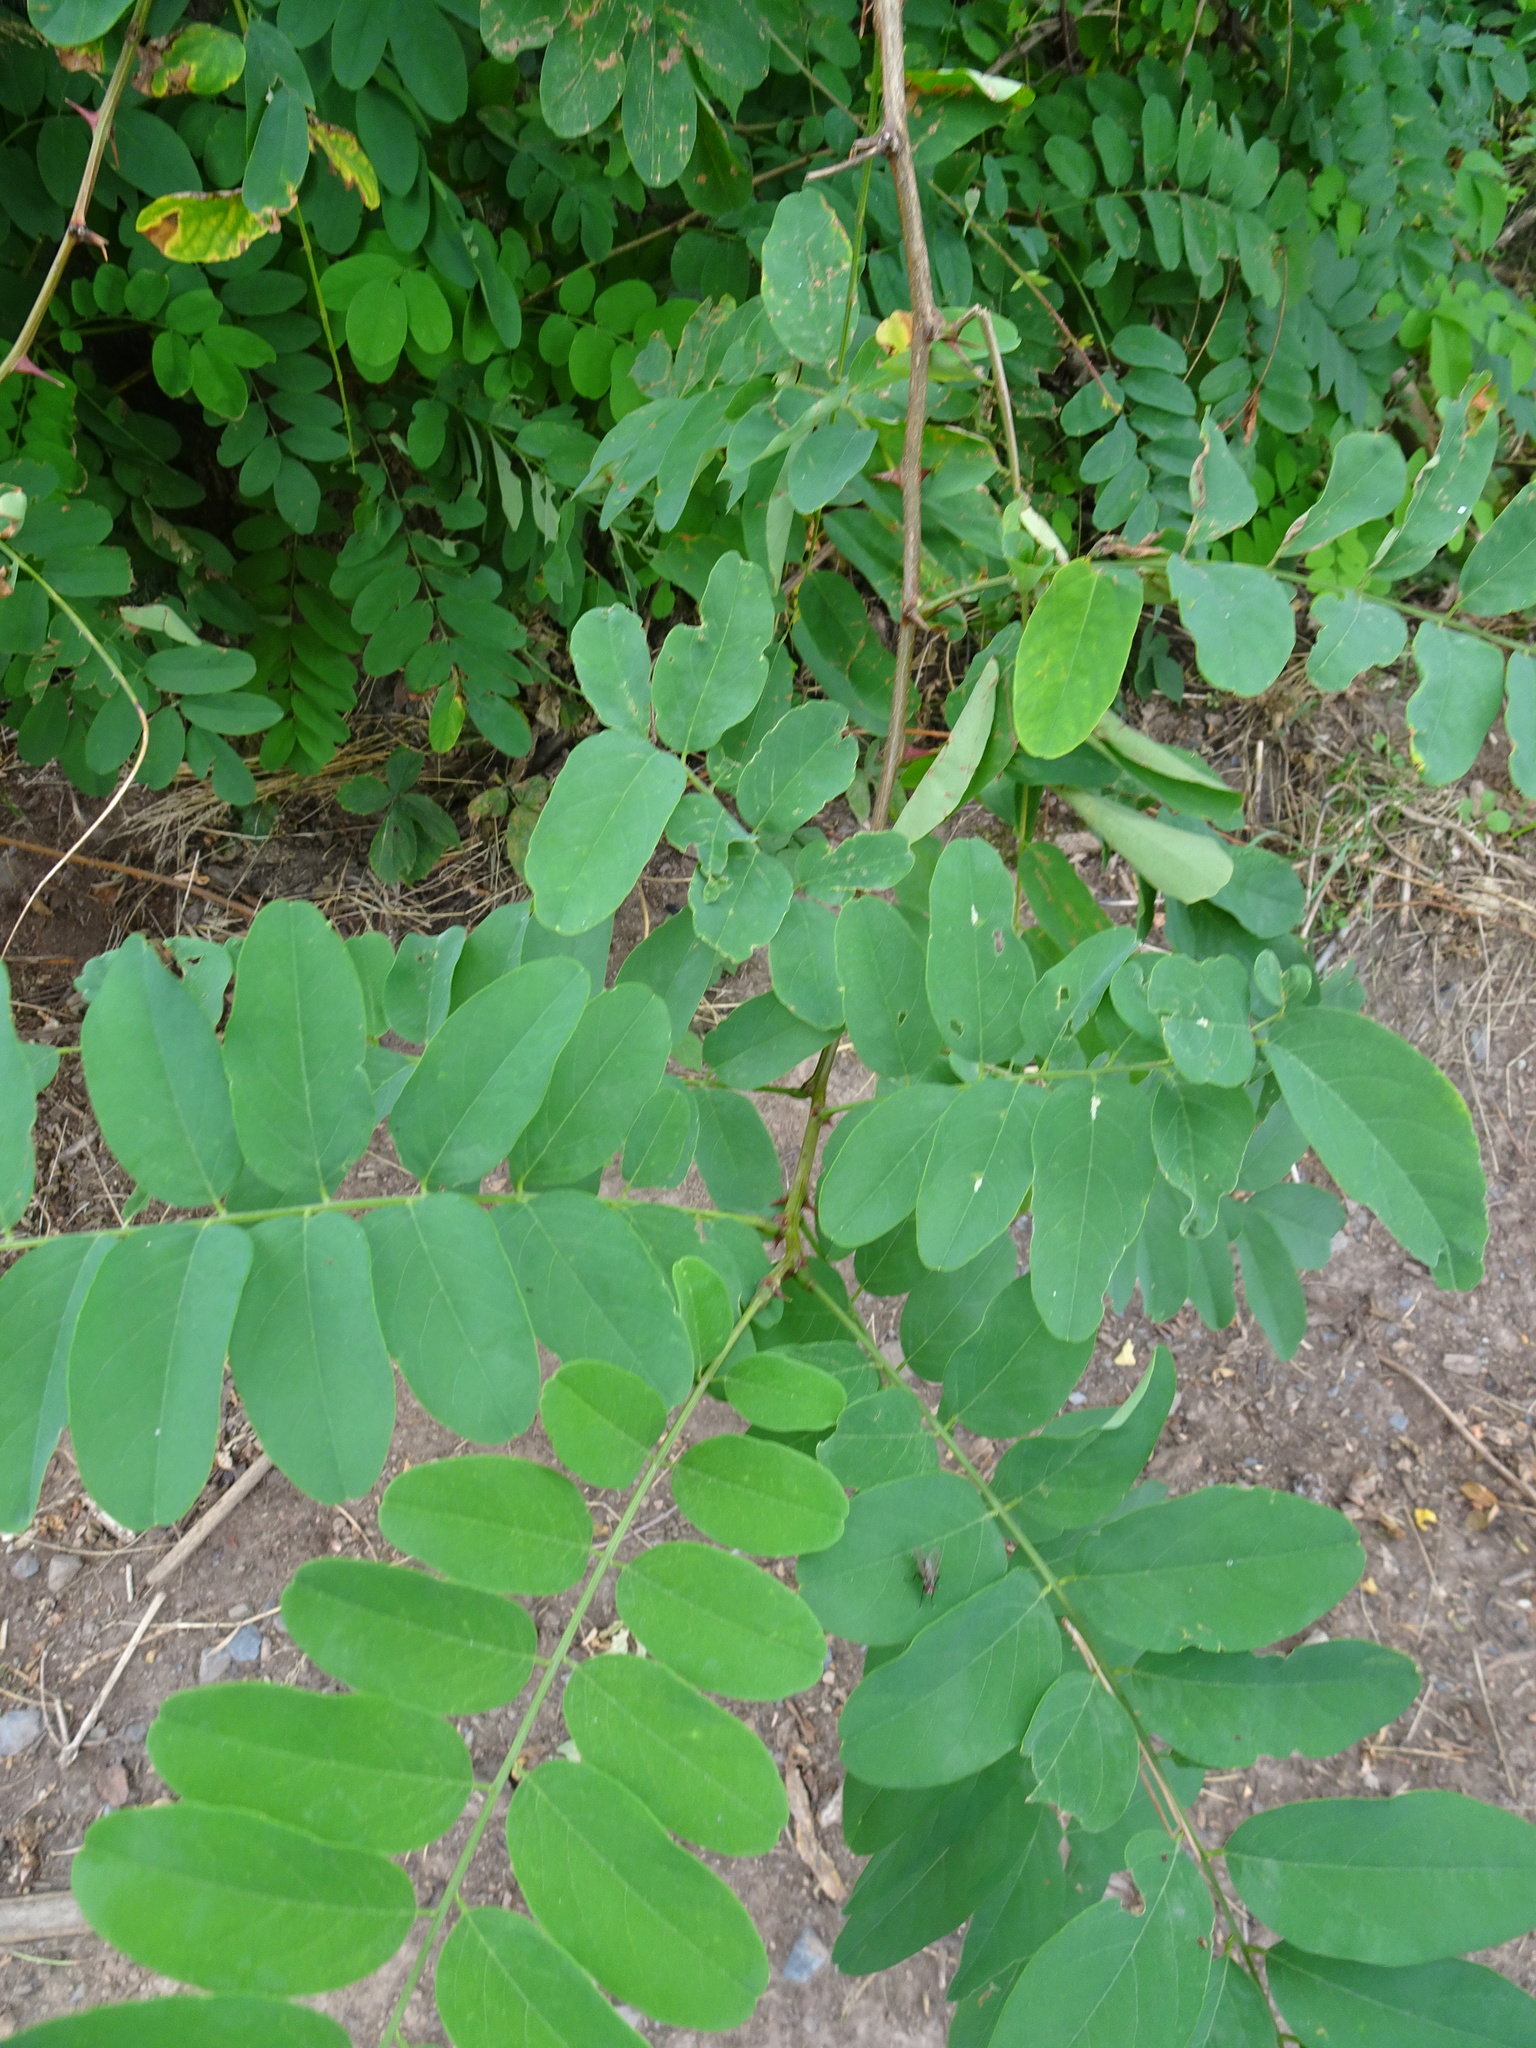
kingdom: Plantae
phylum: Tracheophyta
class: Magnoliopsida
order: Fabales
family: Fabaceae
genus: Robinia
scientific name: Robinia pseudoacacia
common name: Black locust
